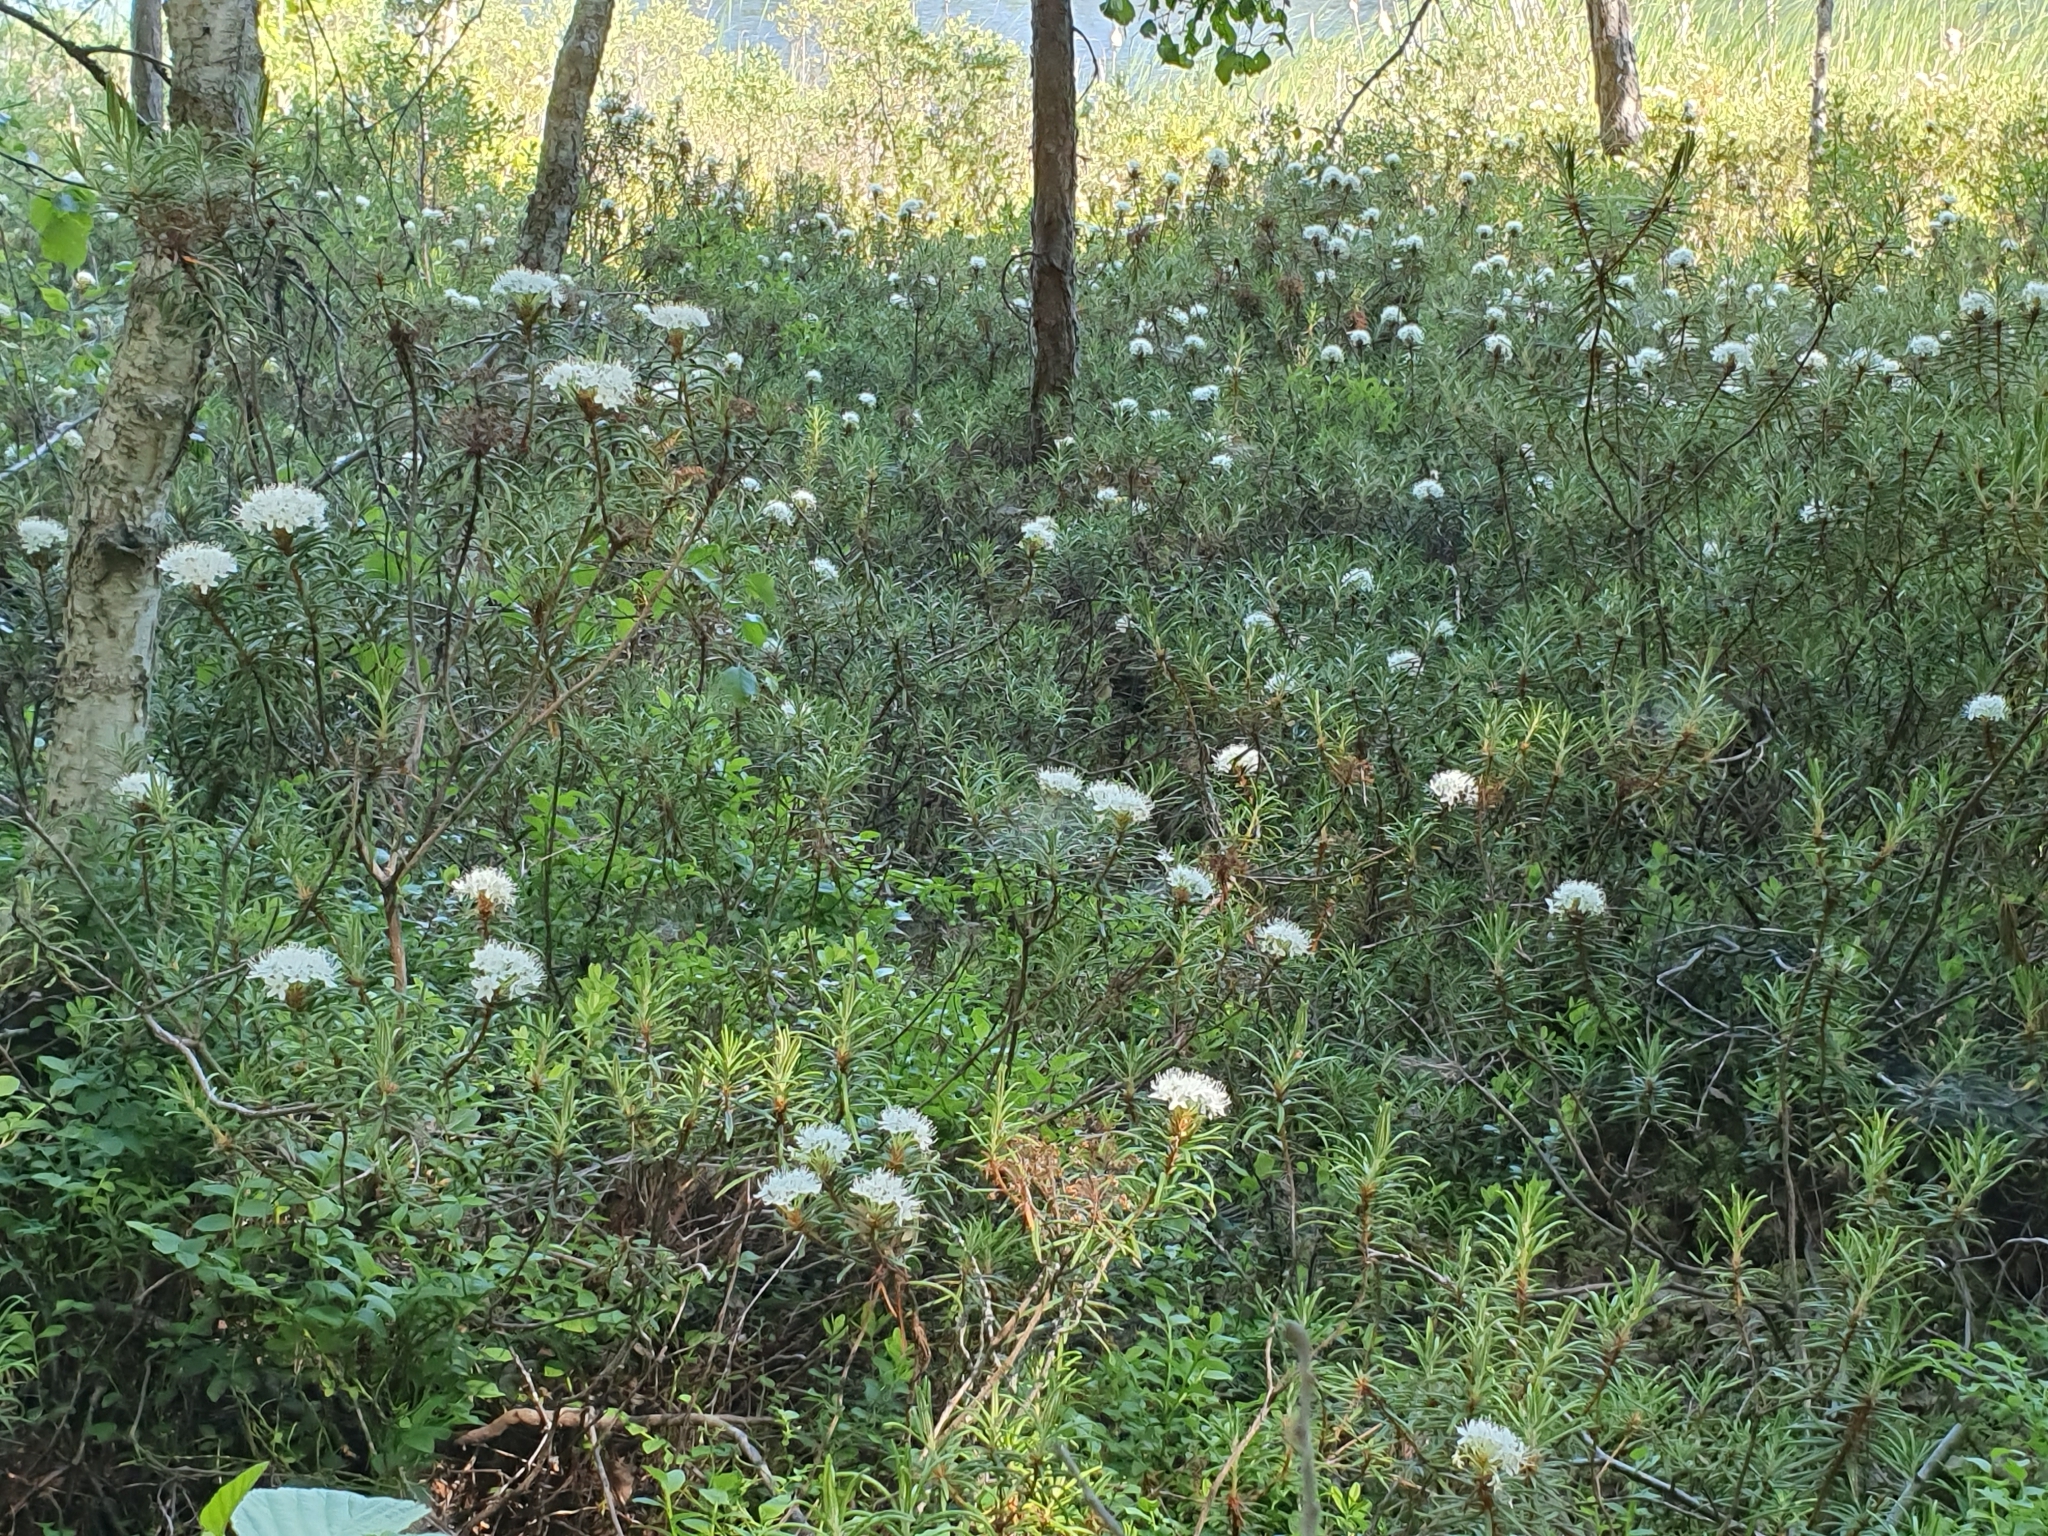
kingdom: Plantae
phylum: Tracheophyta
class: Magnoliopsida
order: Ericales
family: Ericaceae
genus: Rhododendron
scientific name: Rhododendron tomentosum
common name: Marsh labrador tea
